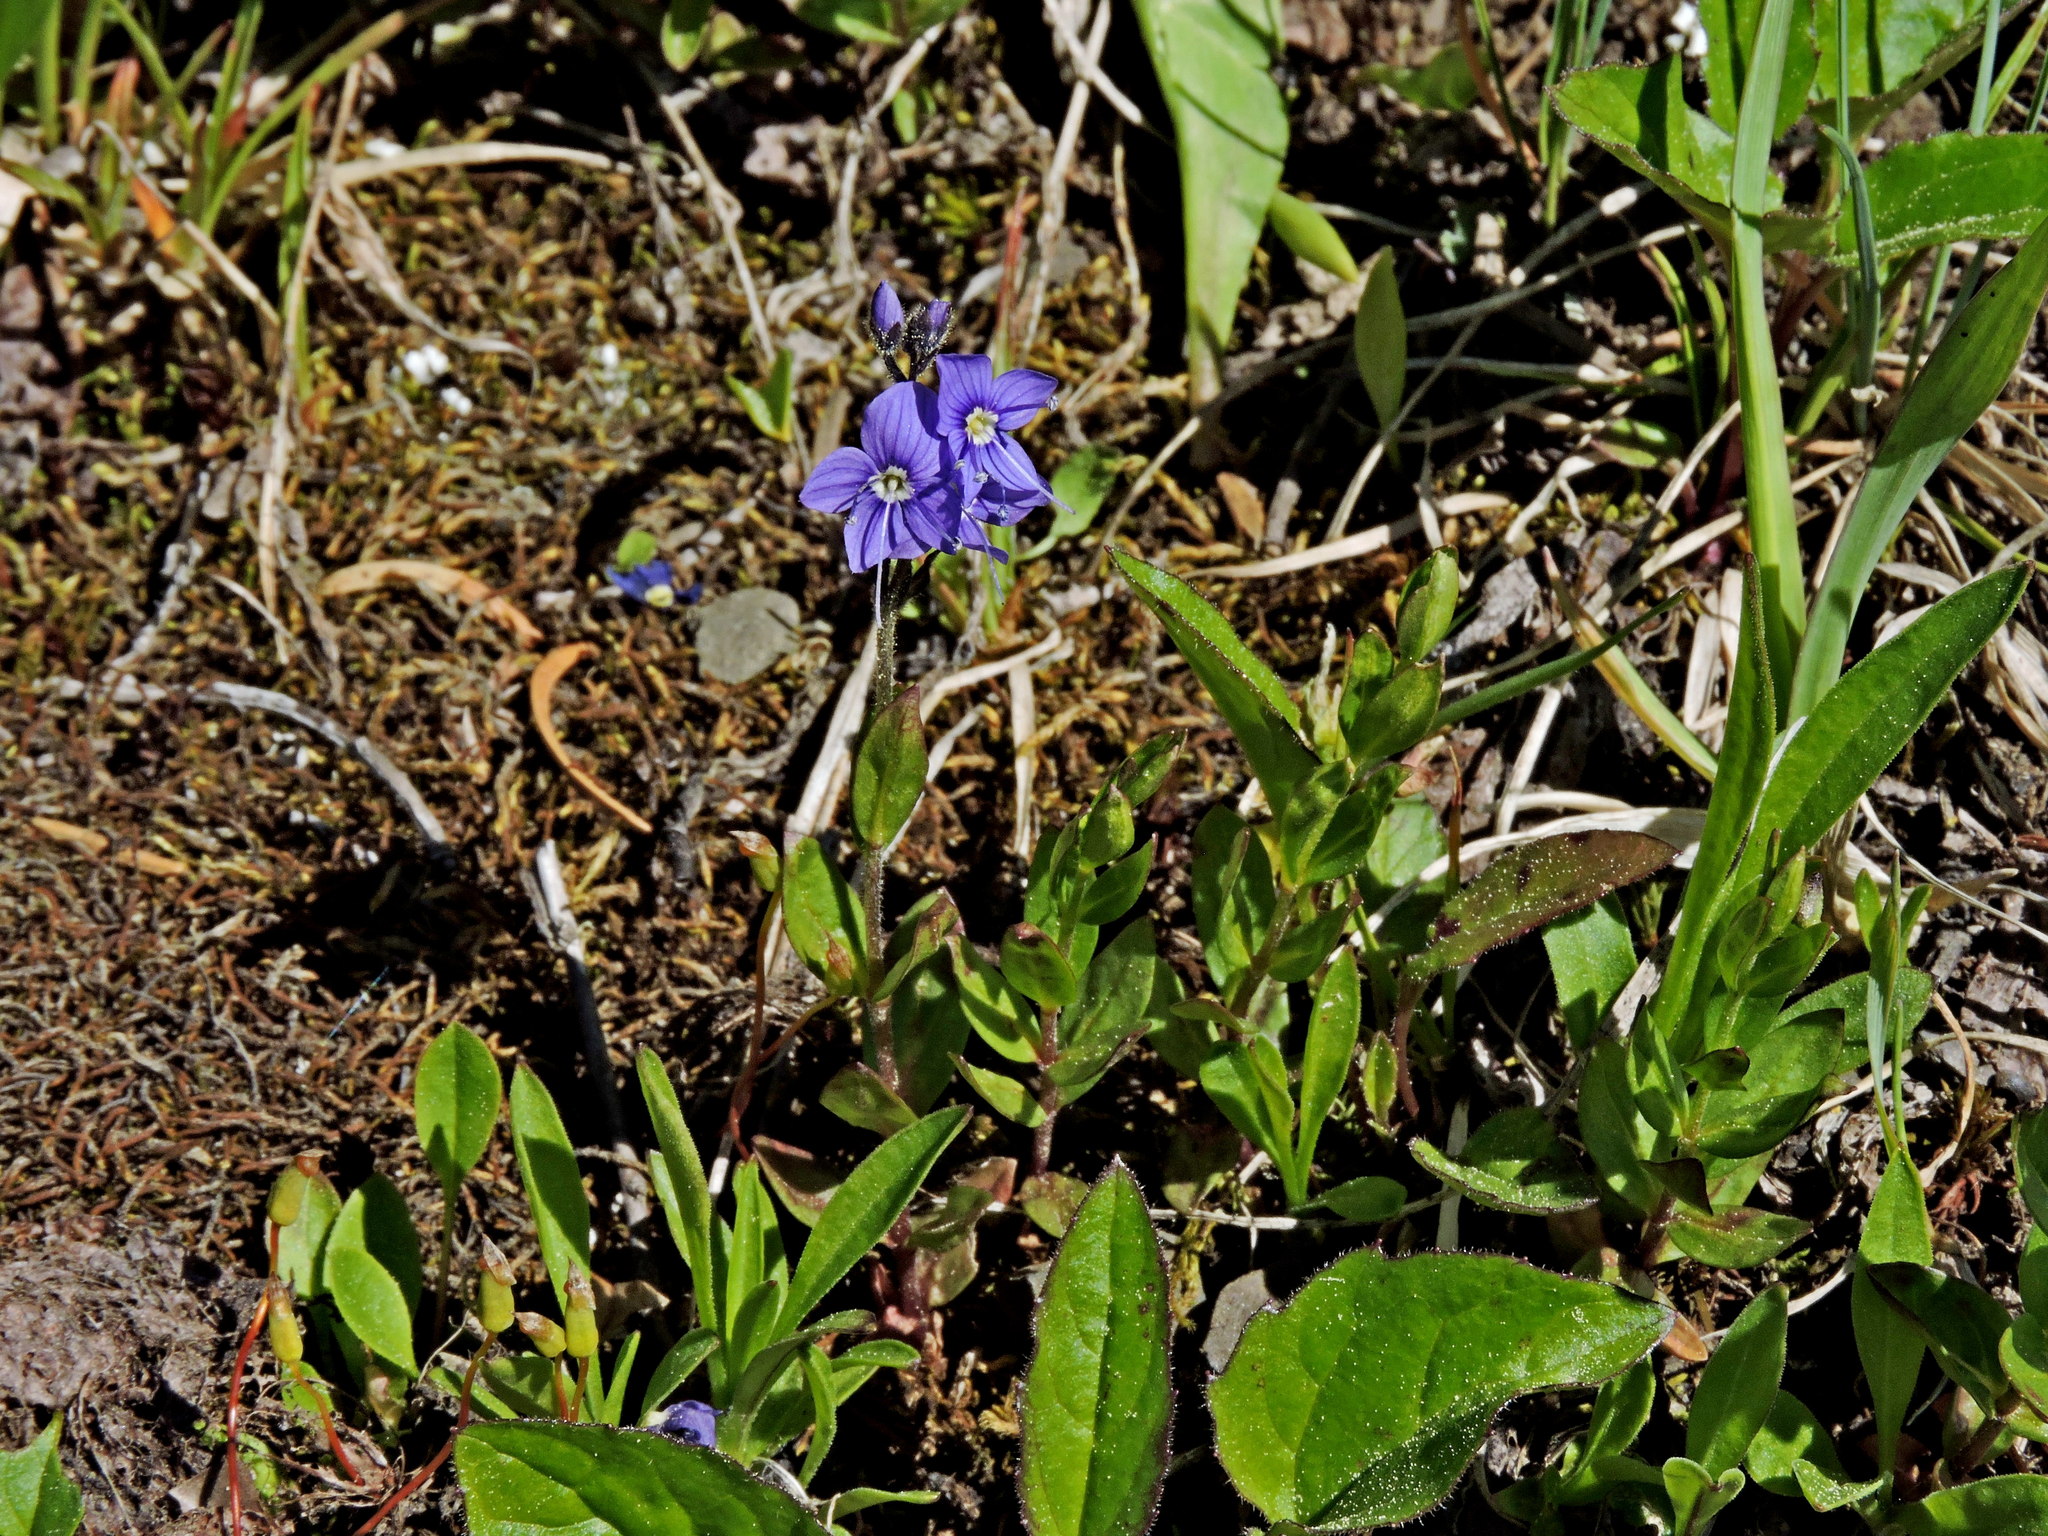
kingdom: Plantae
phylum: Tracheophyta
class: Magnoliopsida
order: Lamiales
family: Plantaginaceae
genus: Veronica
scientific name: Veronica cusickii
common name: Cusick's speedwell
